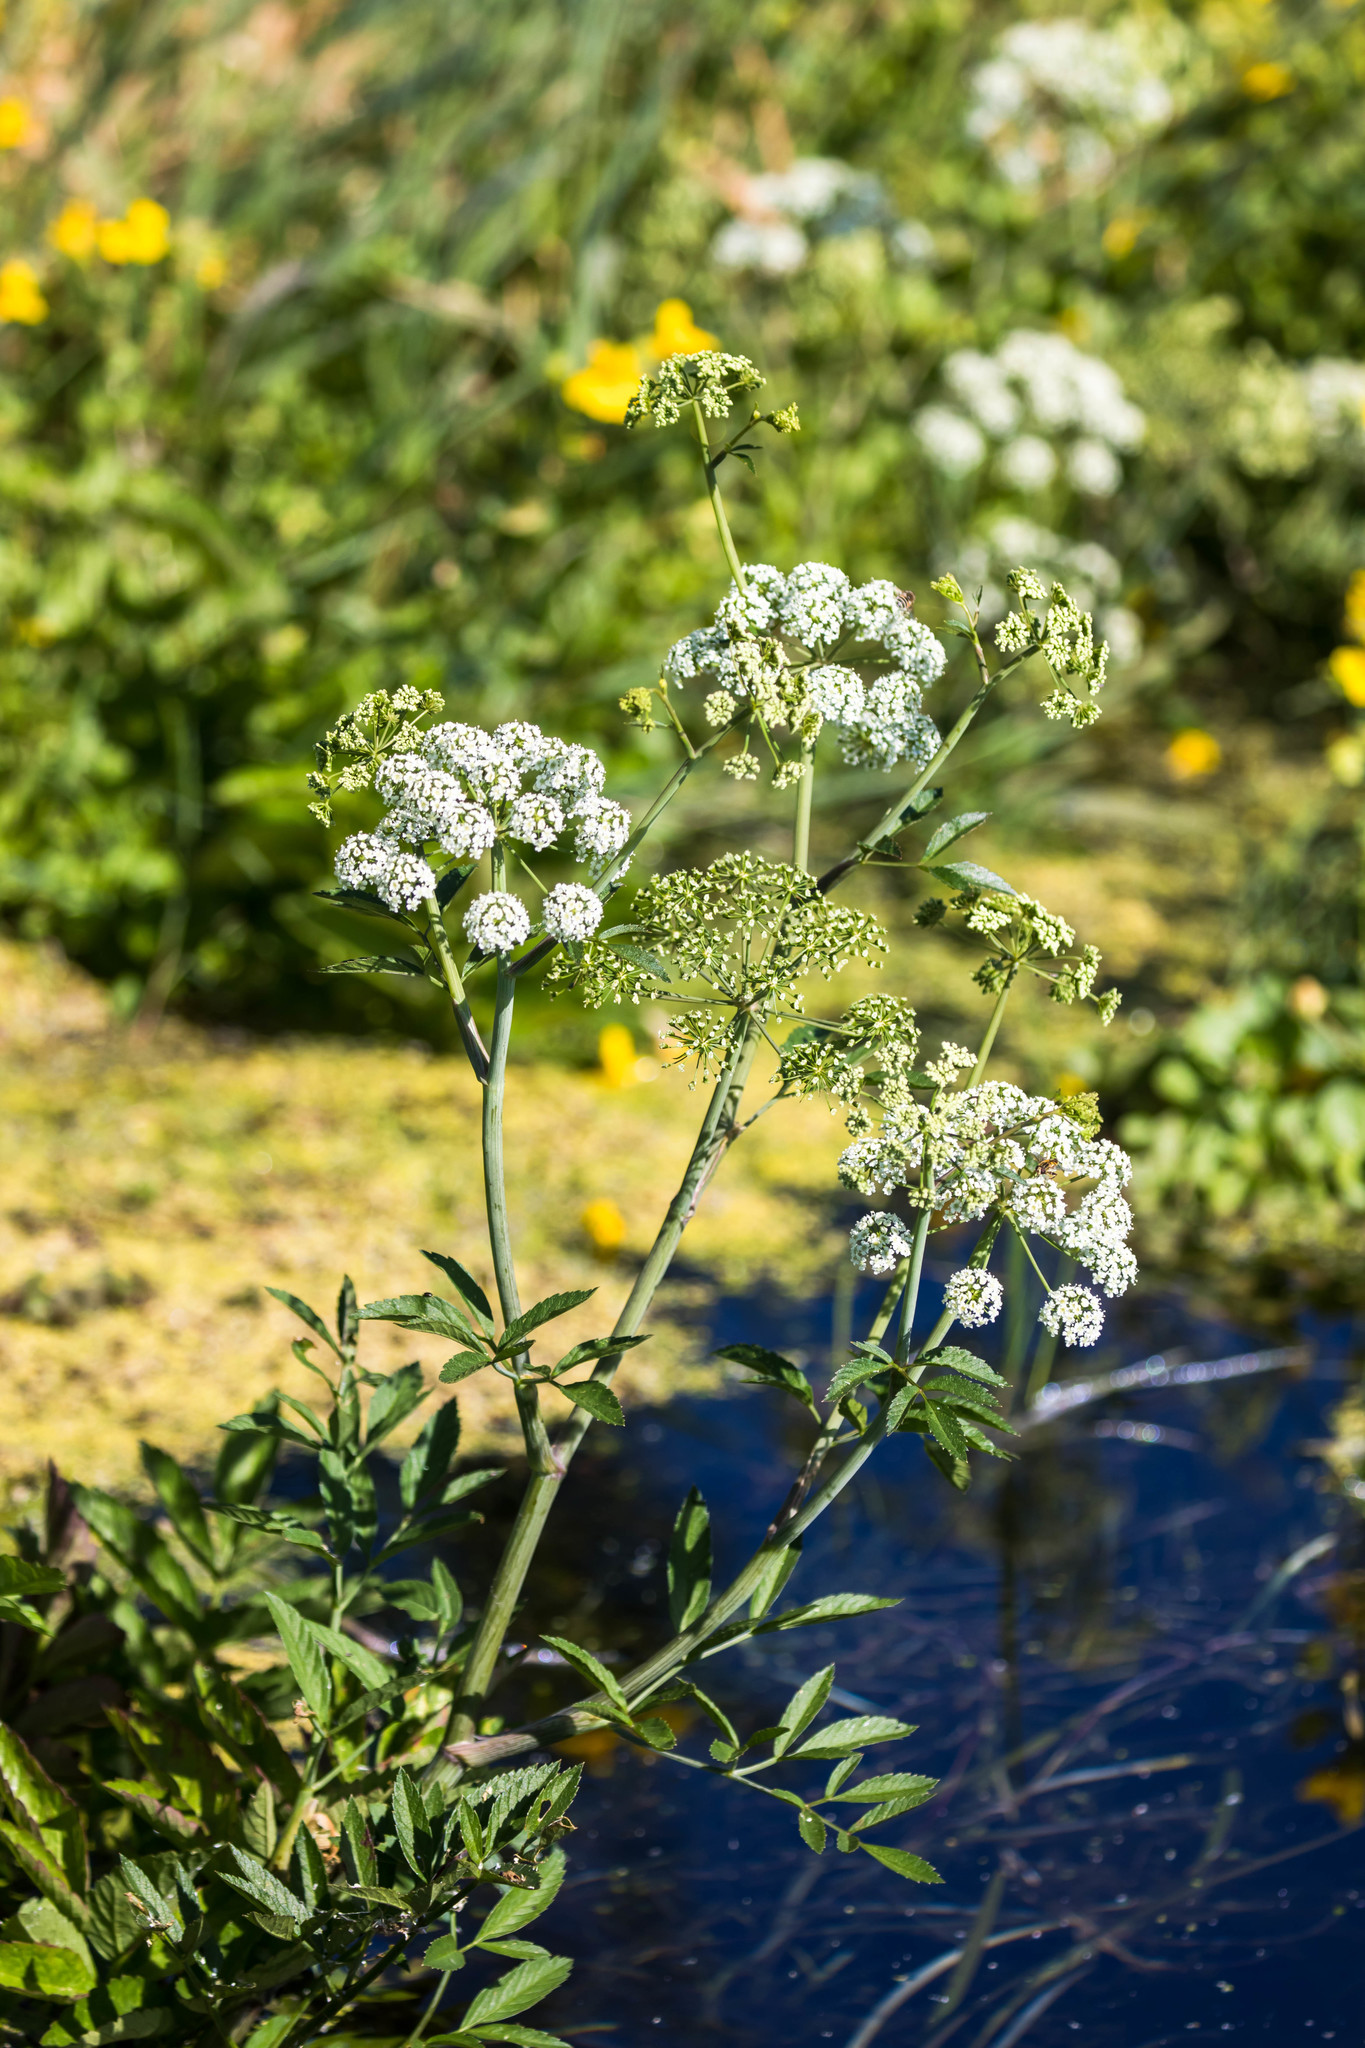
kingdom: Plantae
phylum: Tracheophyta
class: Magnoliopsida
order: Apiales
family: Apiaceae
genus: Cicuta
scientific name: Cicuta douglasii
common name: Western water-hemlock
